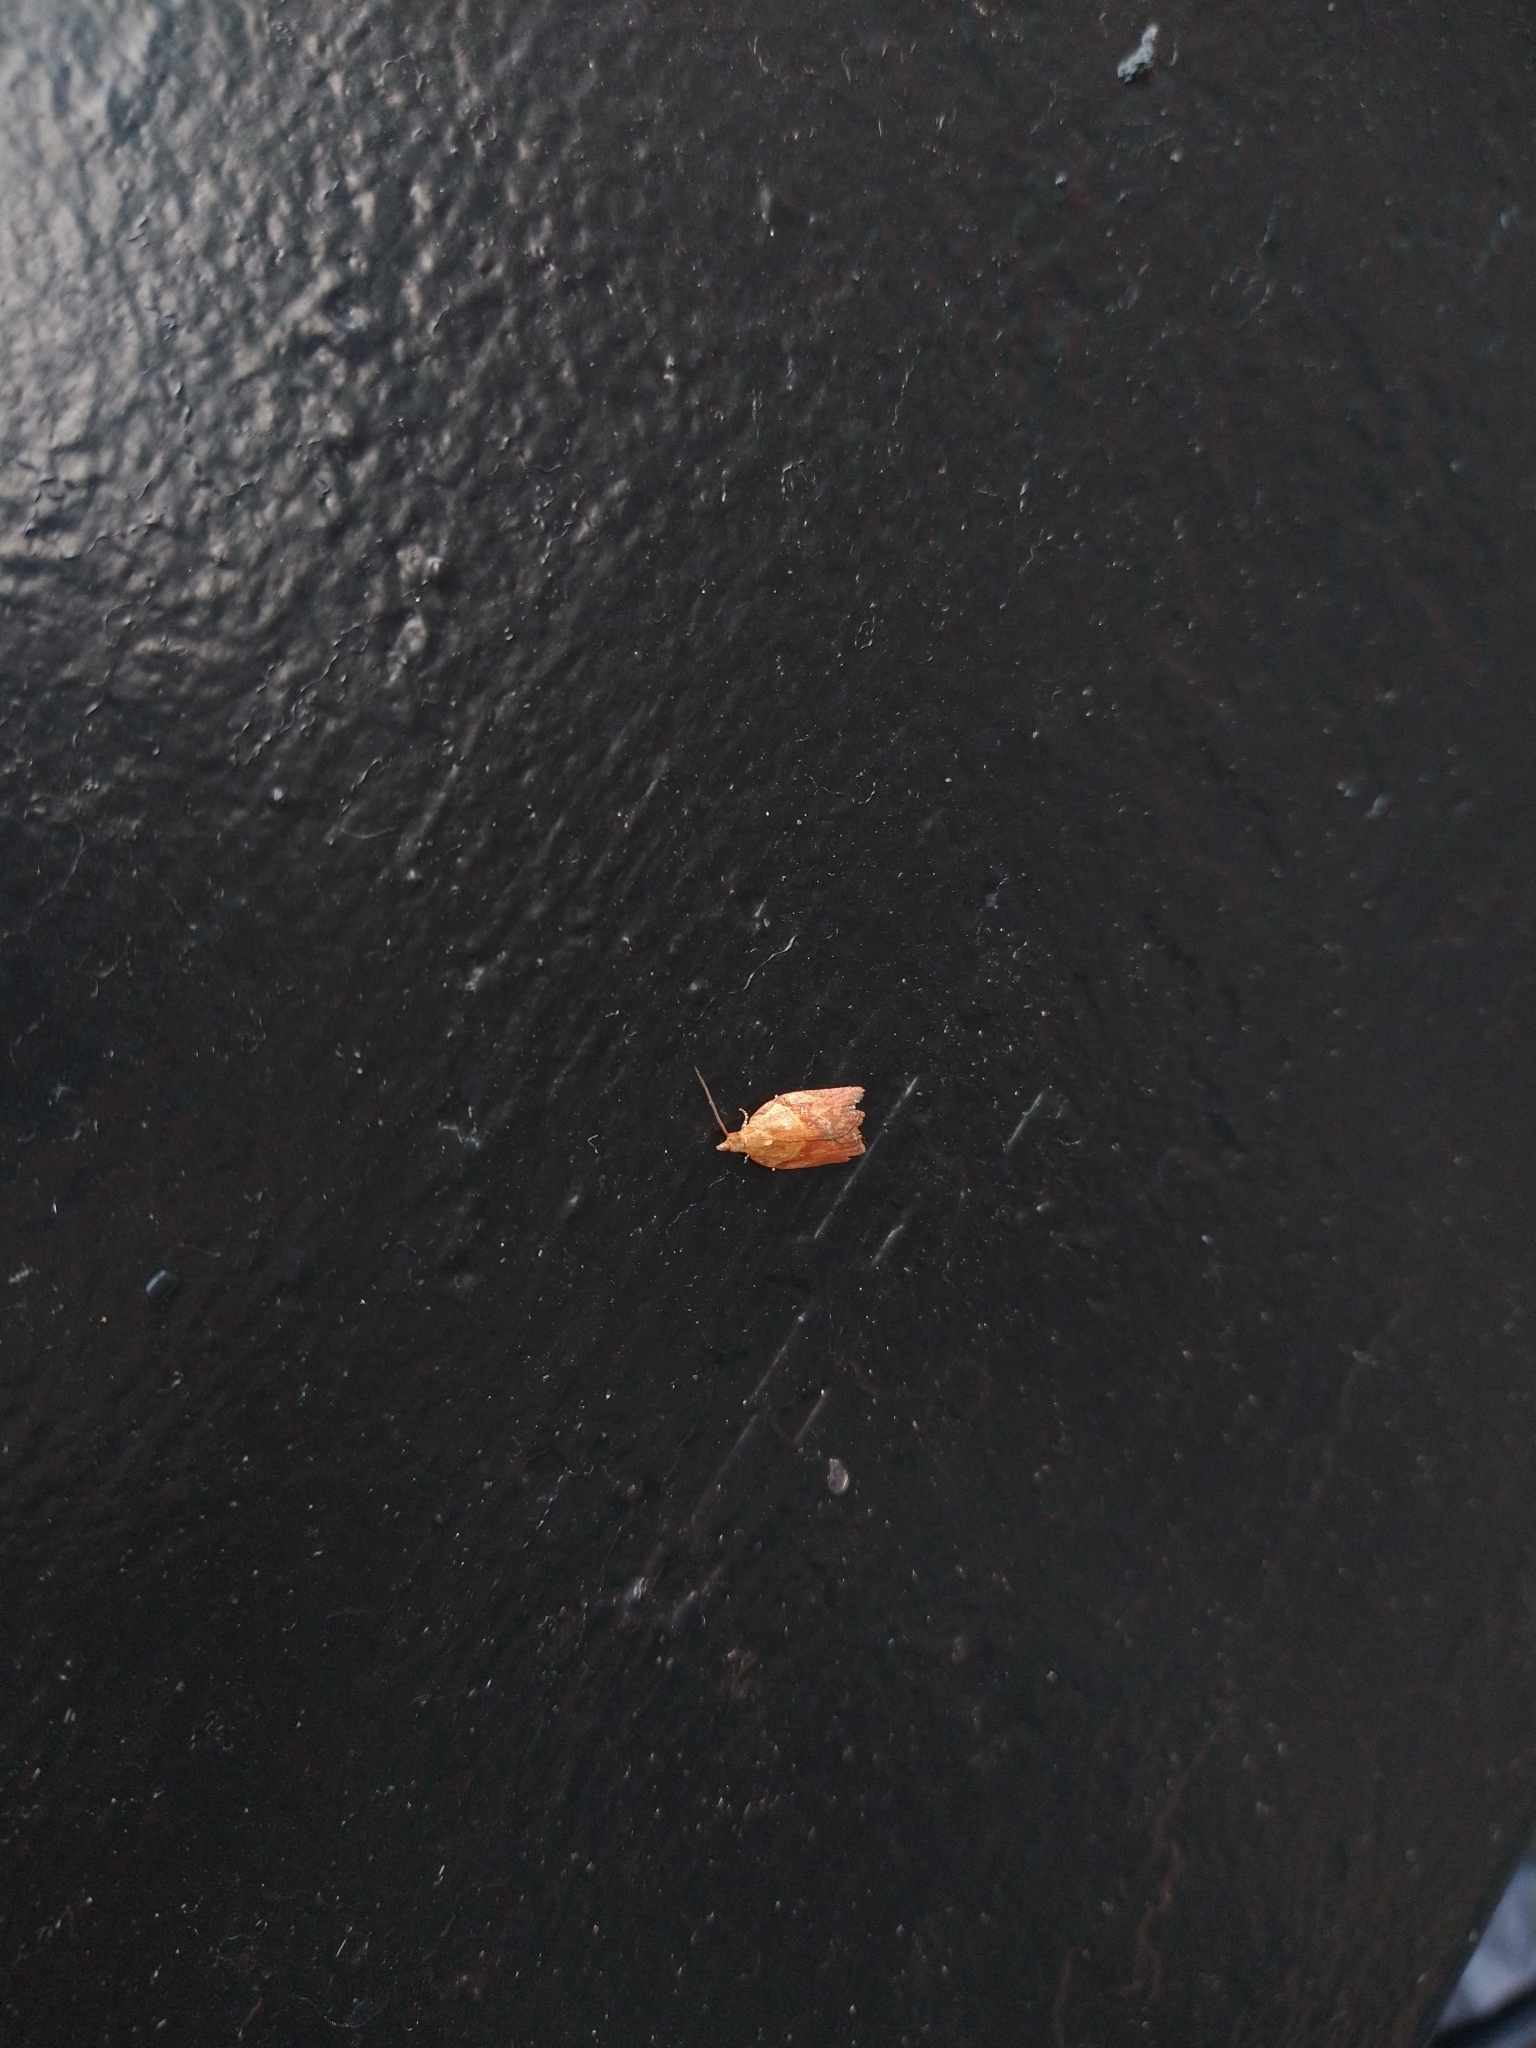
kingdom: Animalia
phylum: Arthropoda
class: Insecta
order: Lepidoptera
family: Tortricidae
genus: Epiphyas
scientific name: Epiphyas postvittana
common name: Light brown apple moth
